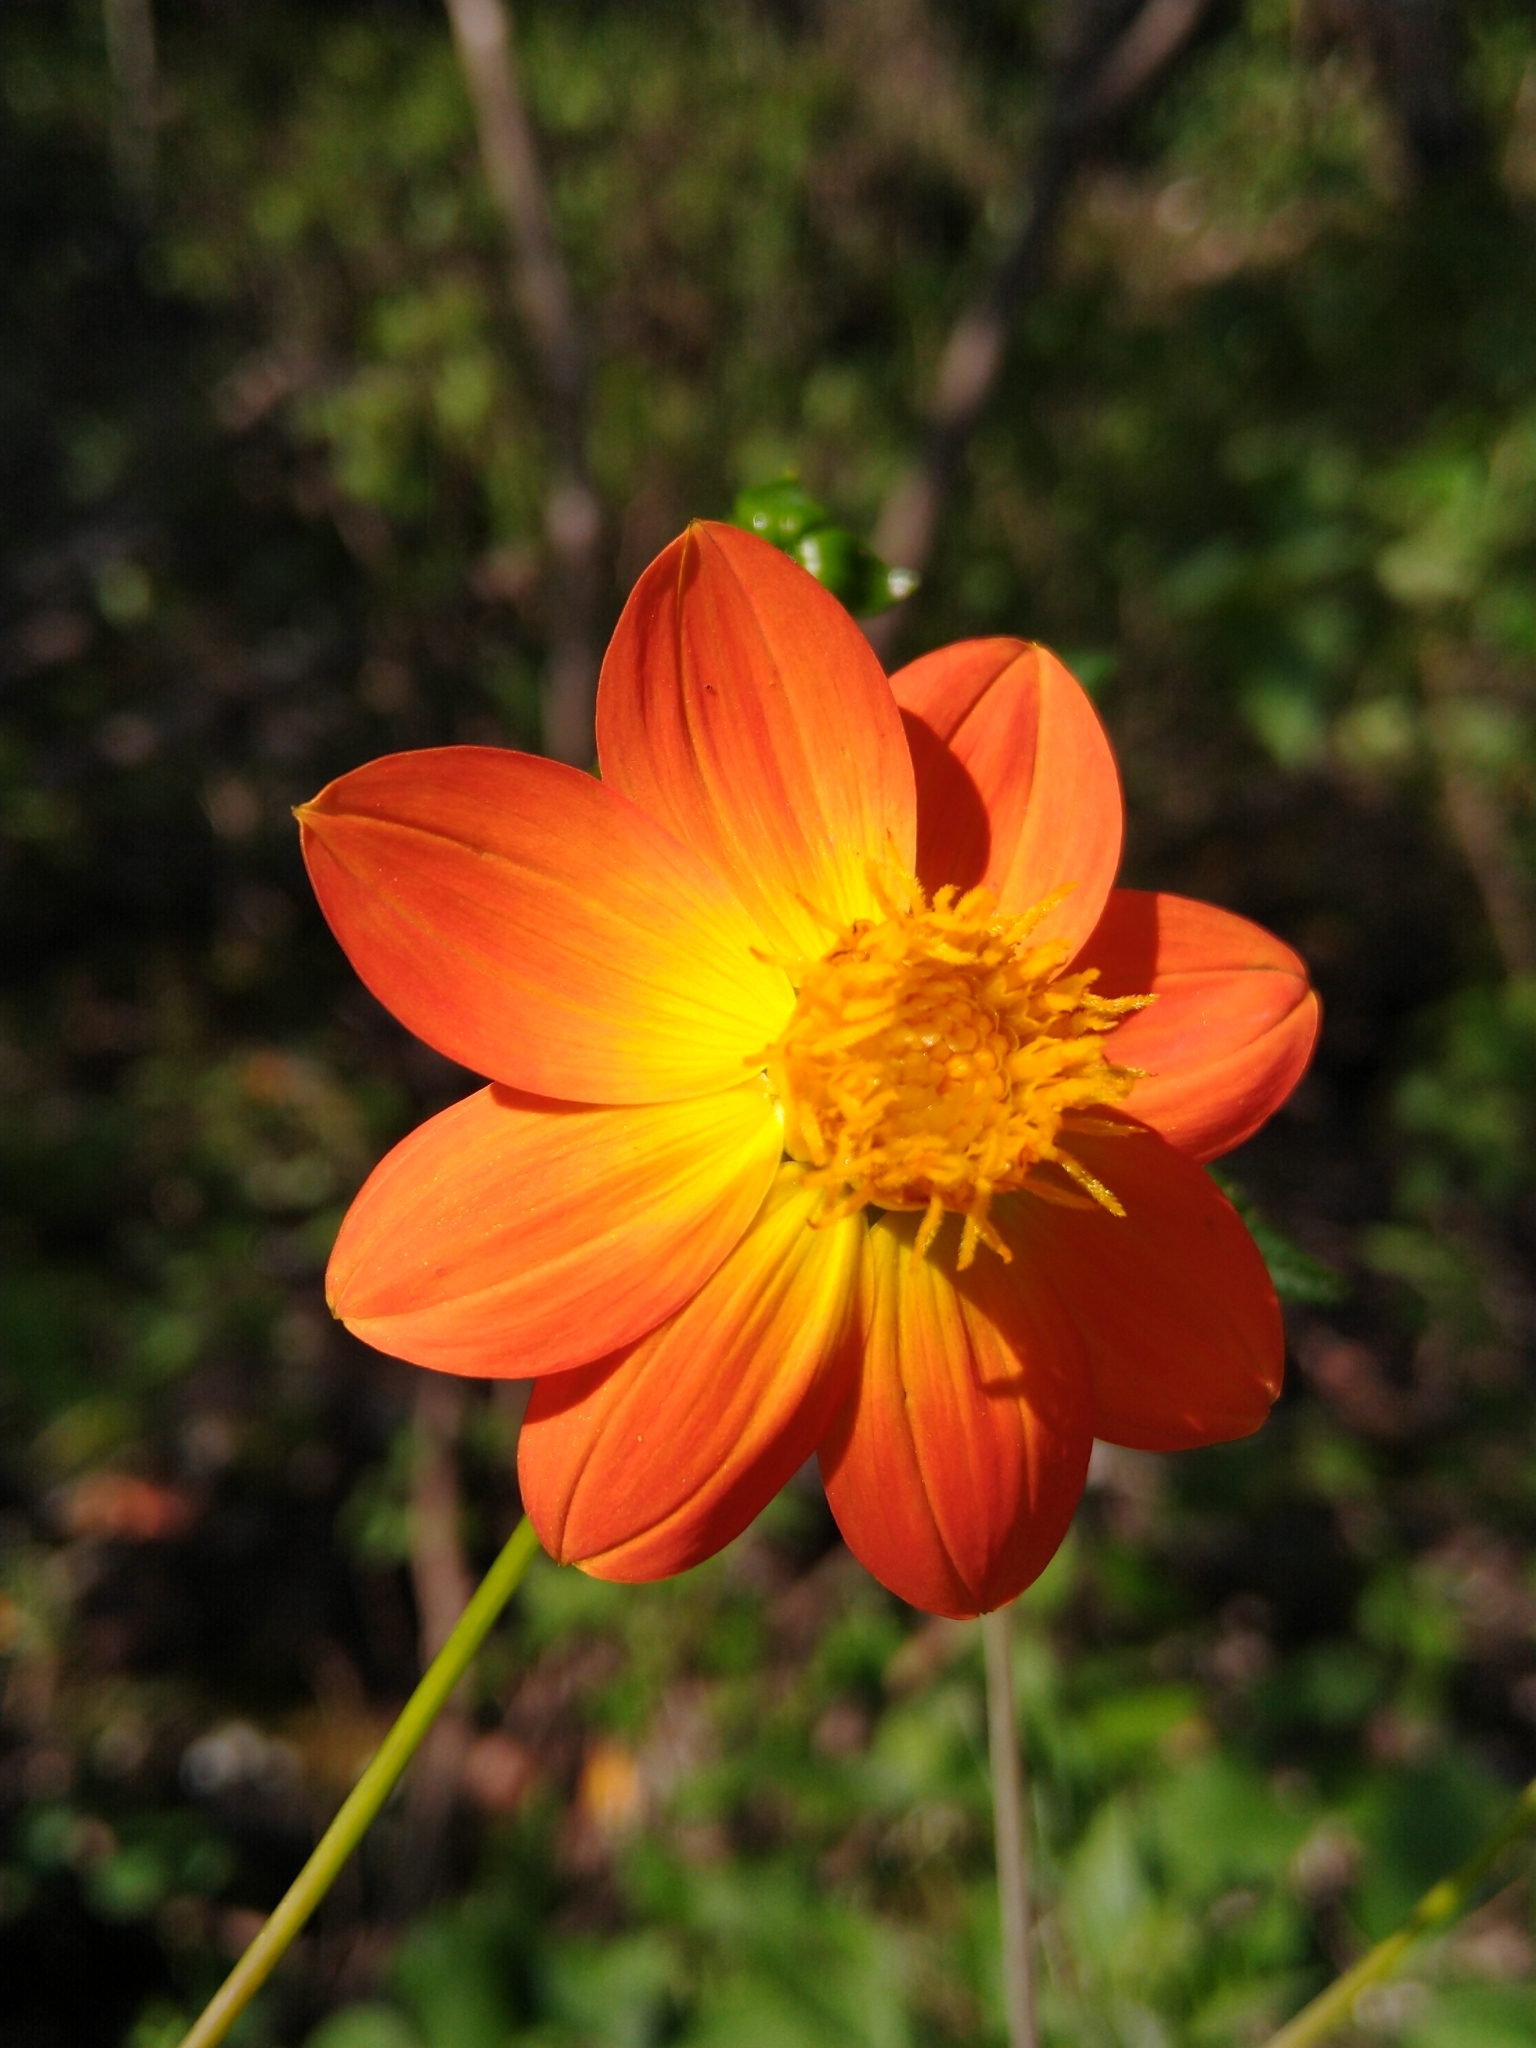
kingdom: Plantae
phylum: Tracheophyta
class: Magnoliopsida
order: Asterales
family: Asteraceae
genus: Dahlia
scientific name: Dahlia coccinea
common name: Red dahlia
